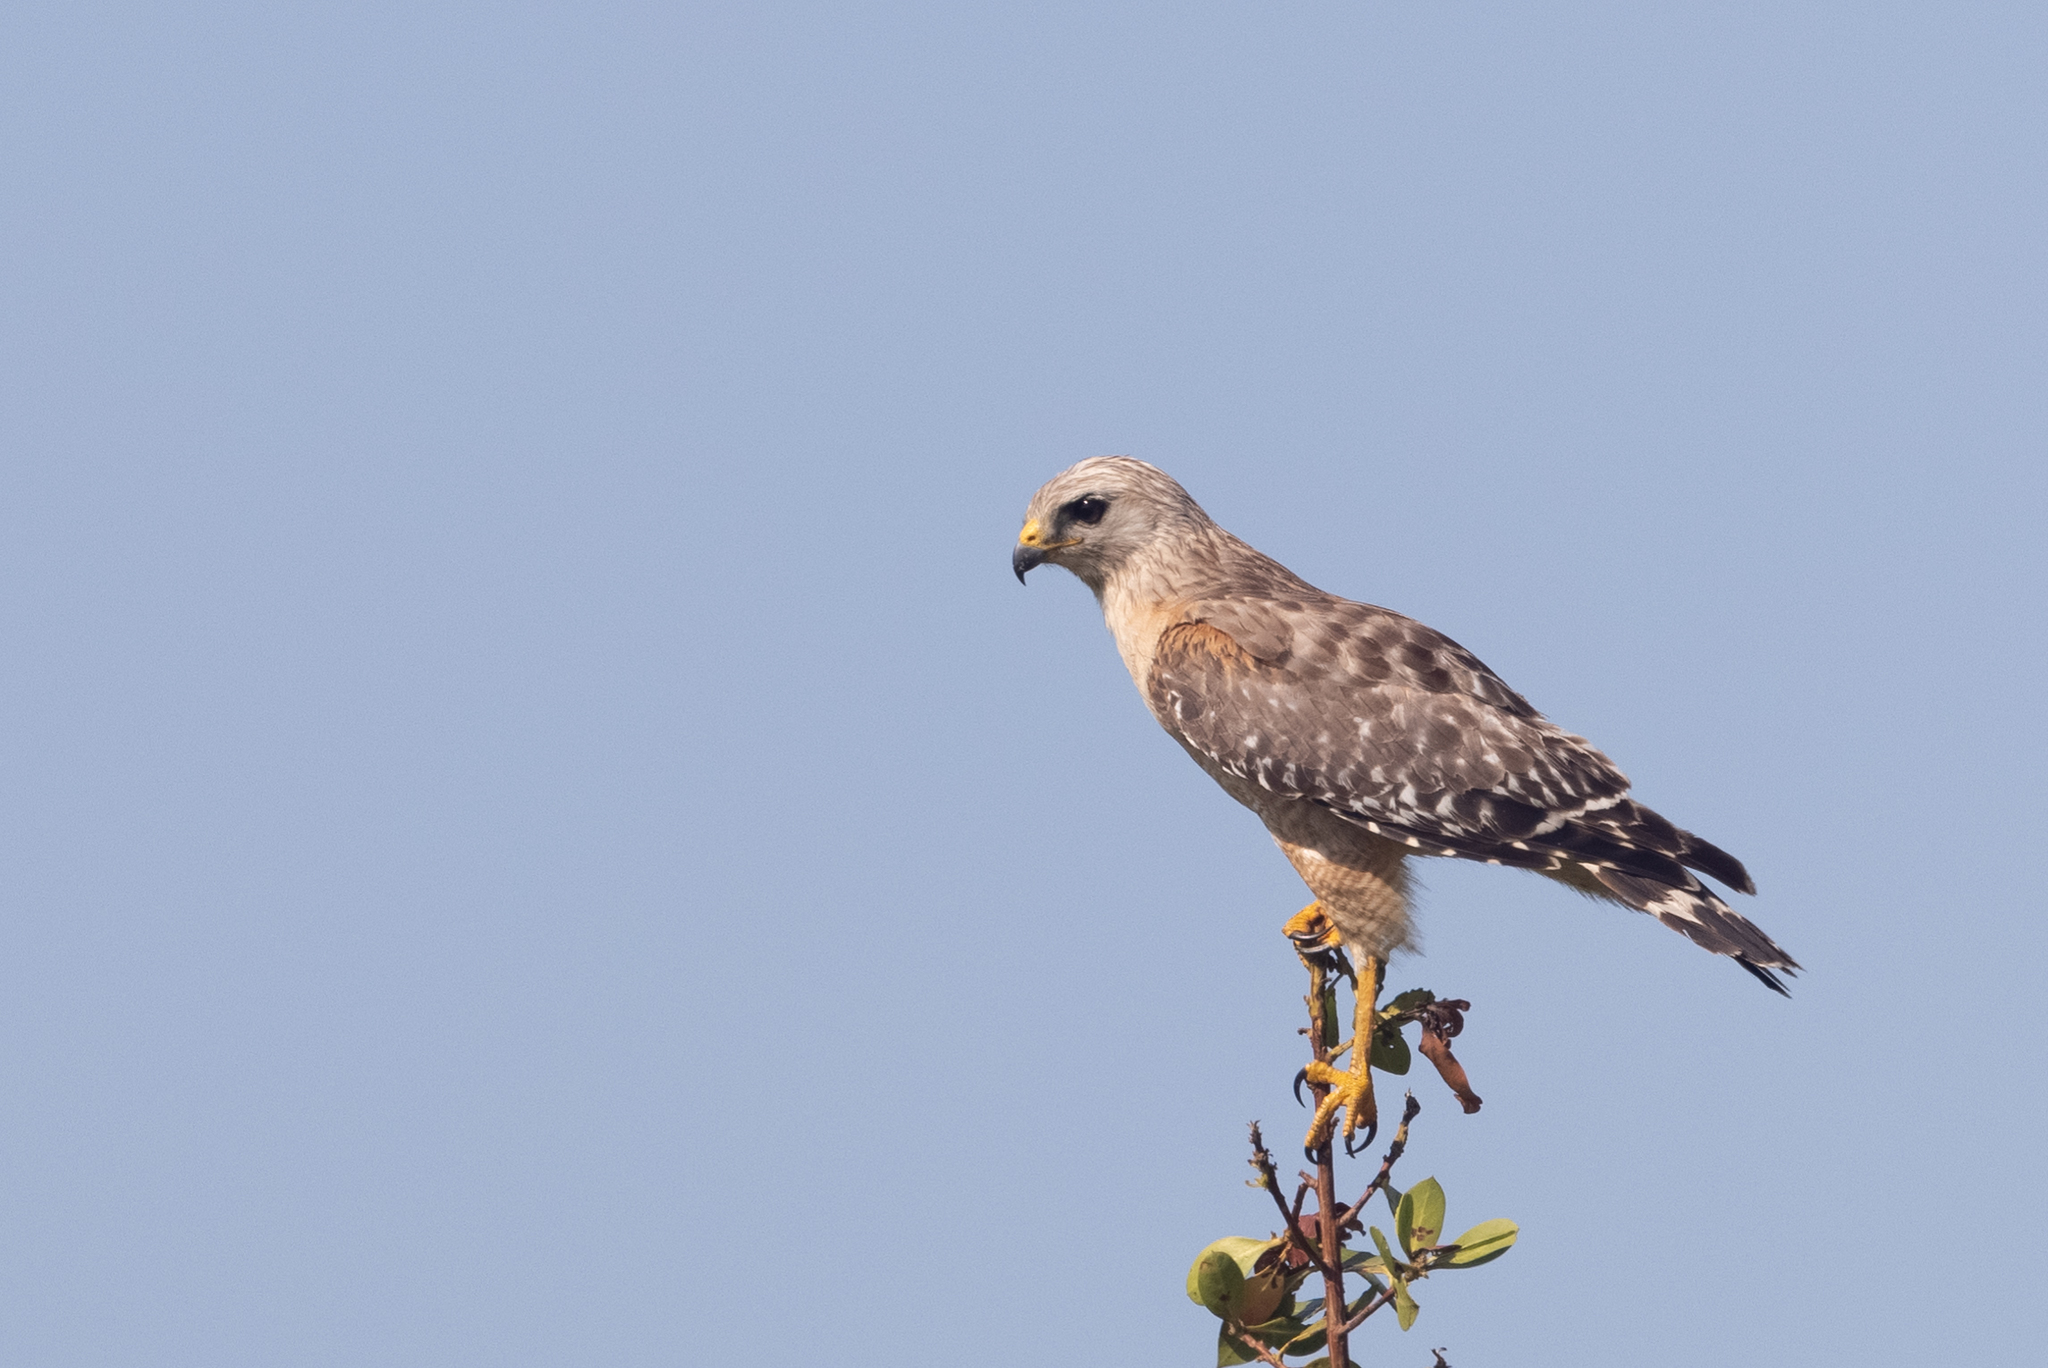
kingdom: Animalia
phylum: Chordata
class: Aves
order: Accipitriformes
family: Accipitridae
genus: Buteo
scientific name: Buteo lineatus
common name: Red-shouldered hawk
